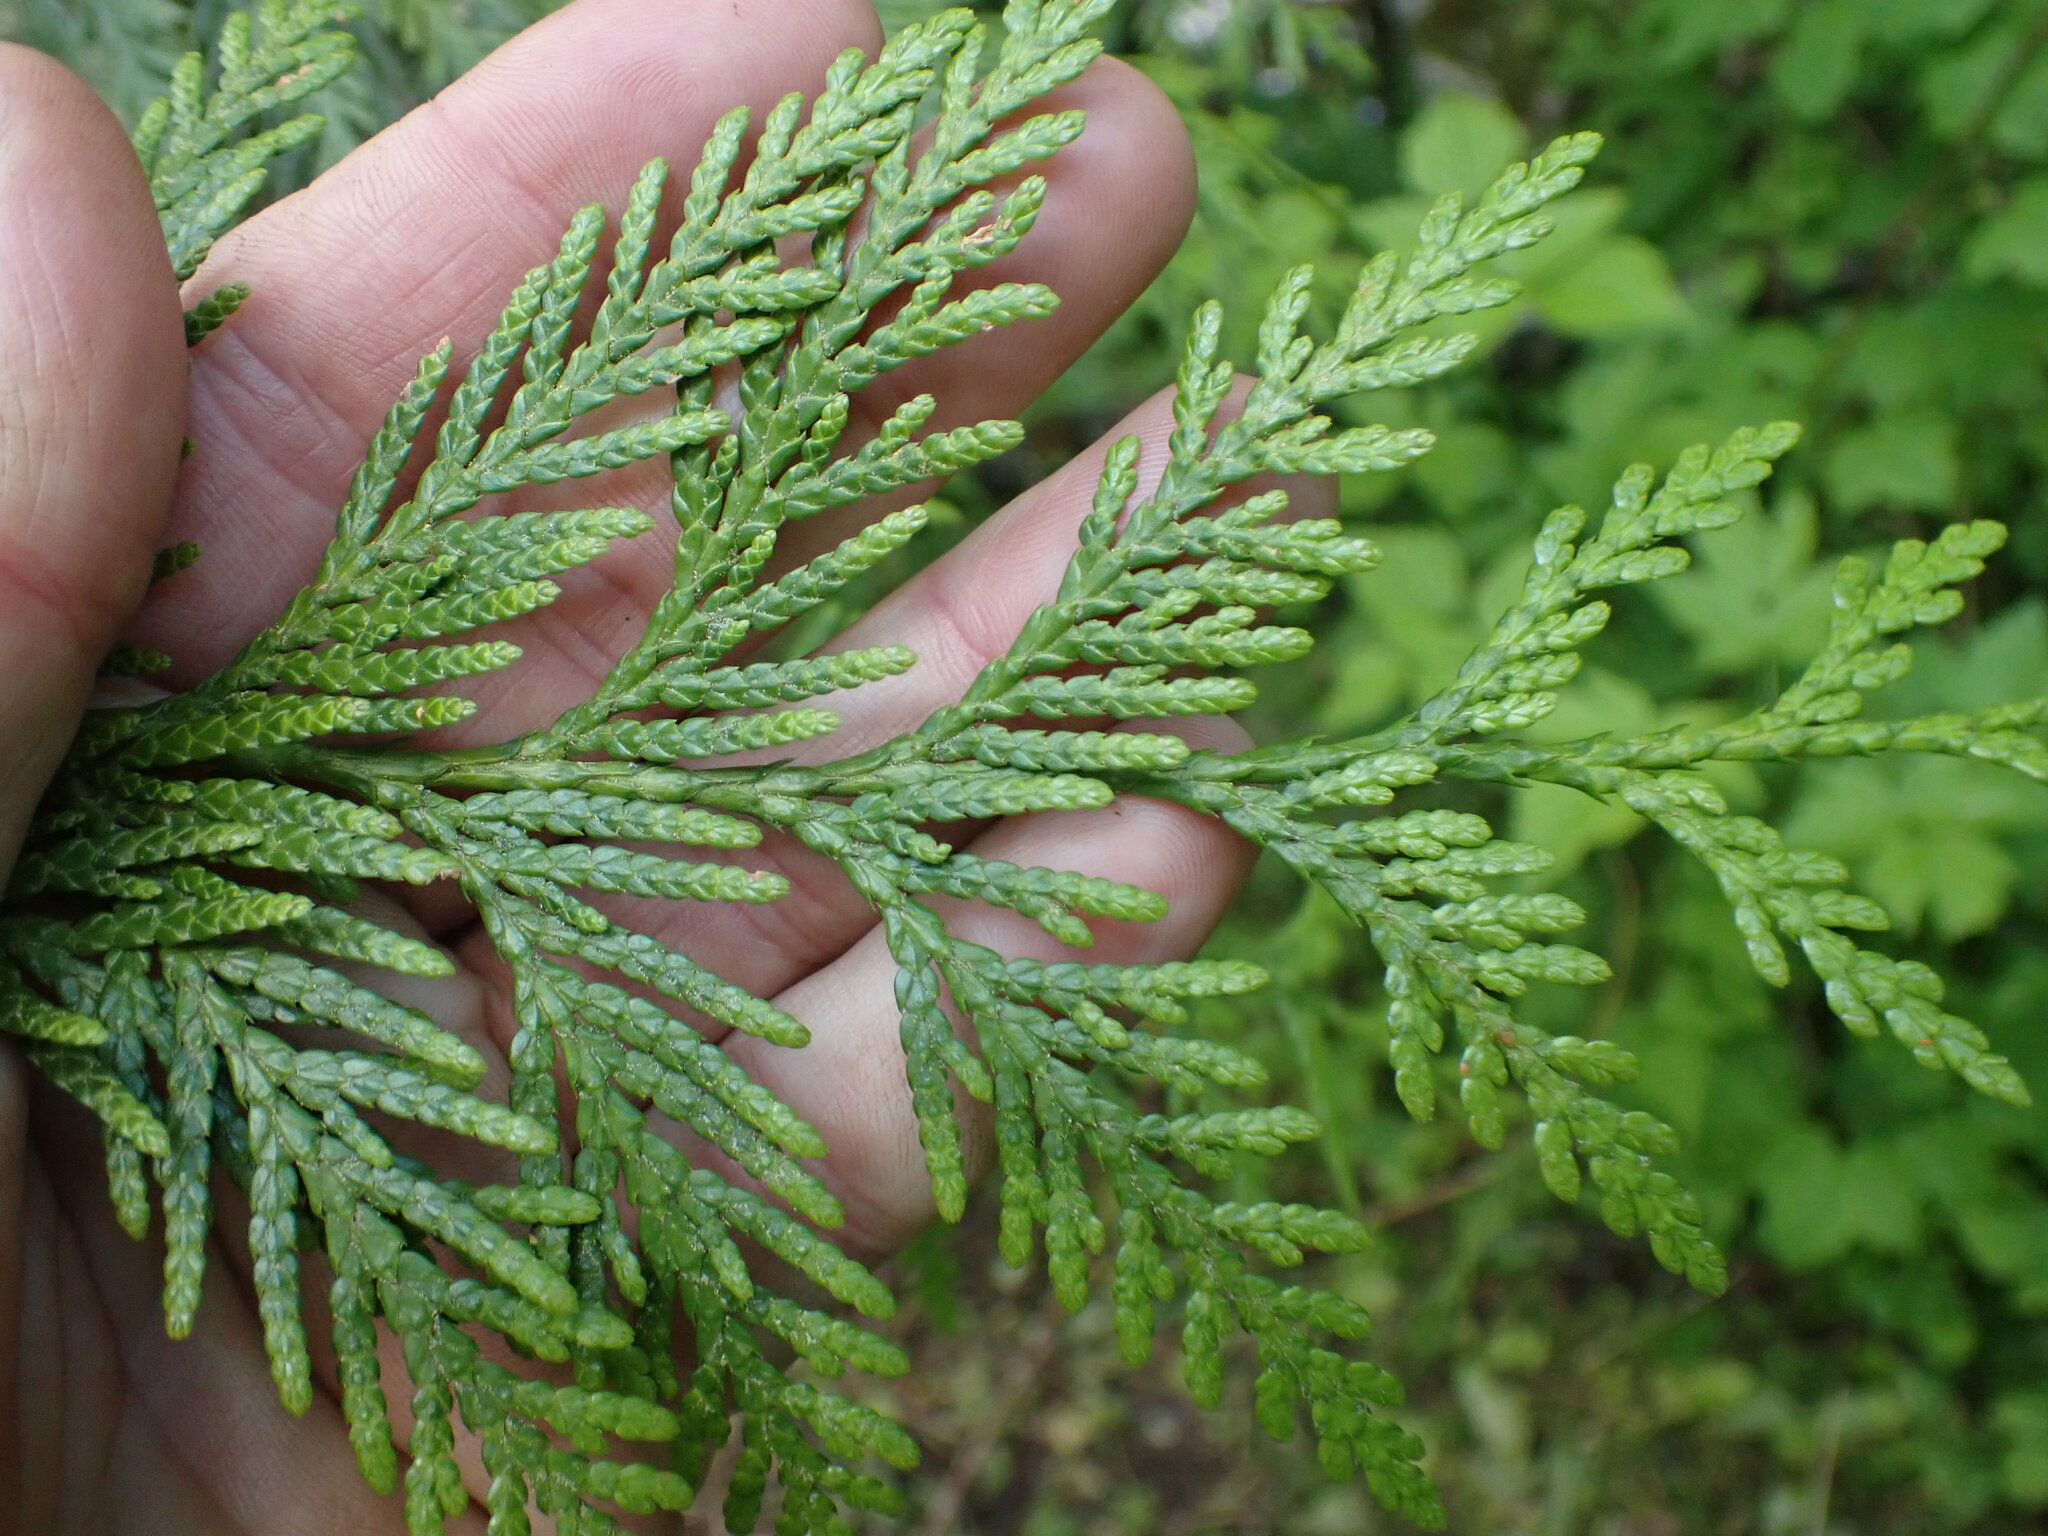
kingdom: Plantae
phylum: Tracheophyta
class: Pinopsida
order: Pinales
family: Cupressaceae
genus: Thuja
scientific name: Thuja plicata
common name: Western red-cedar
